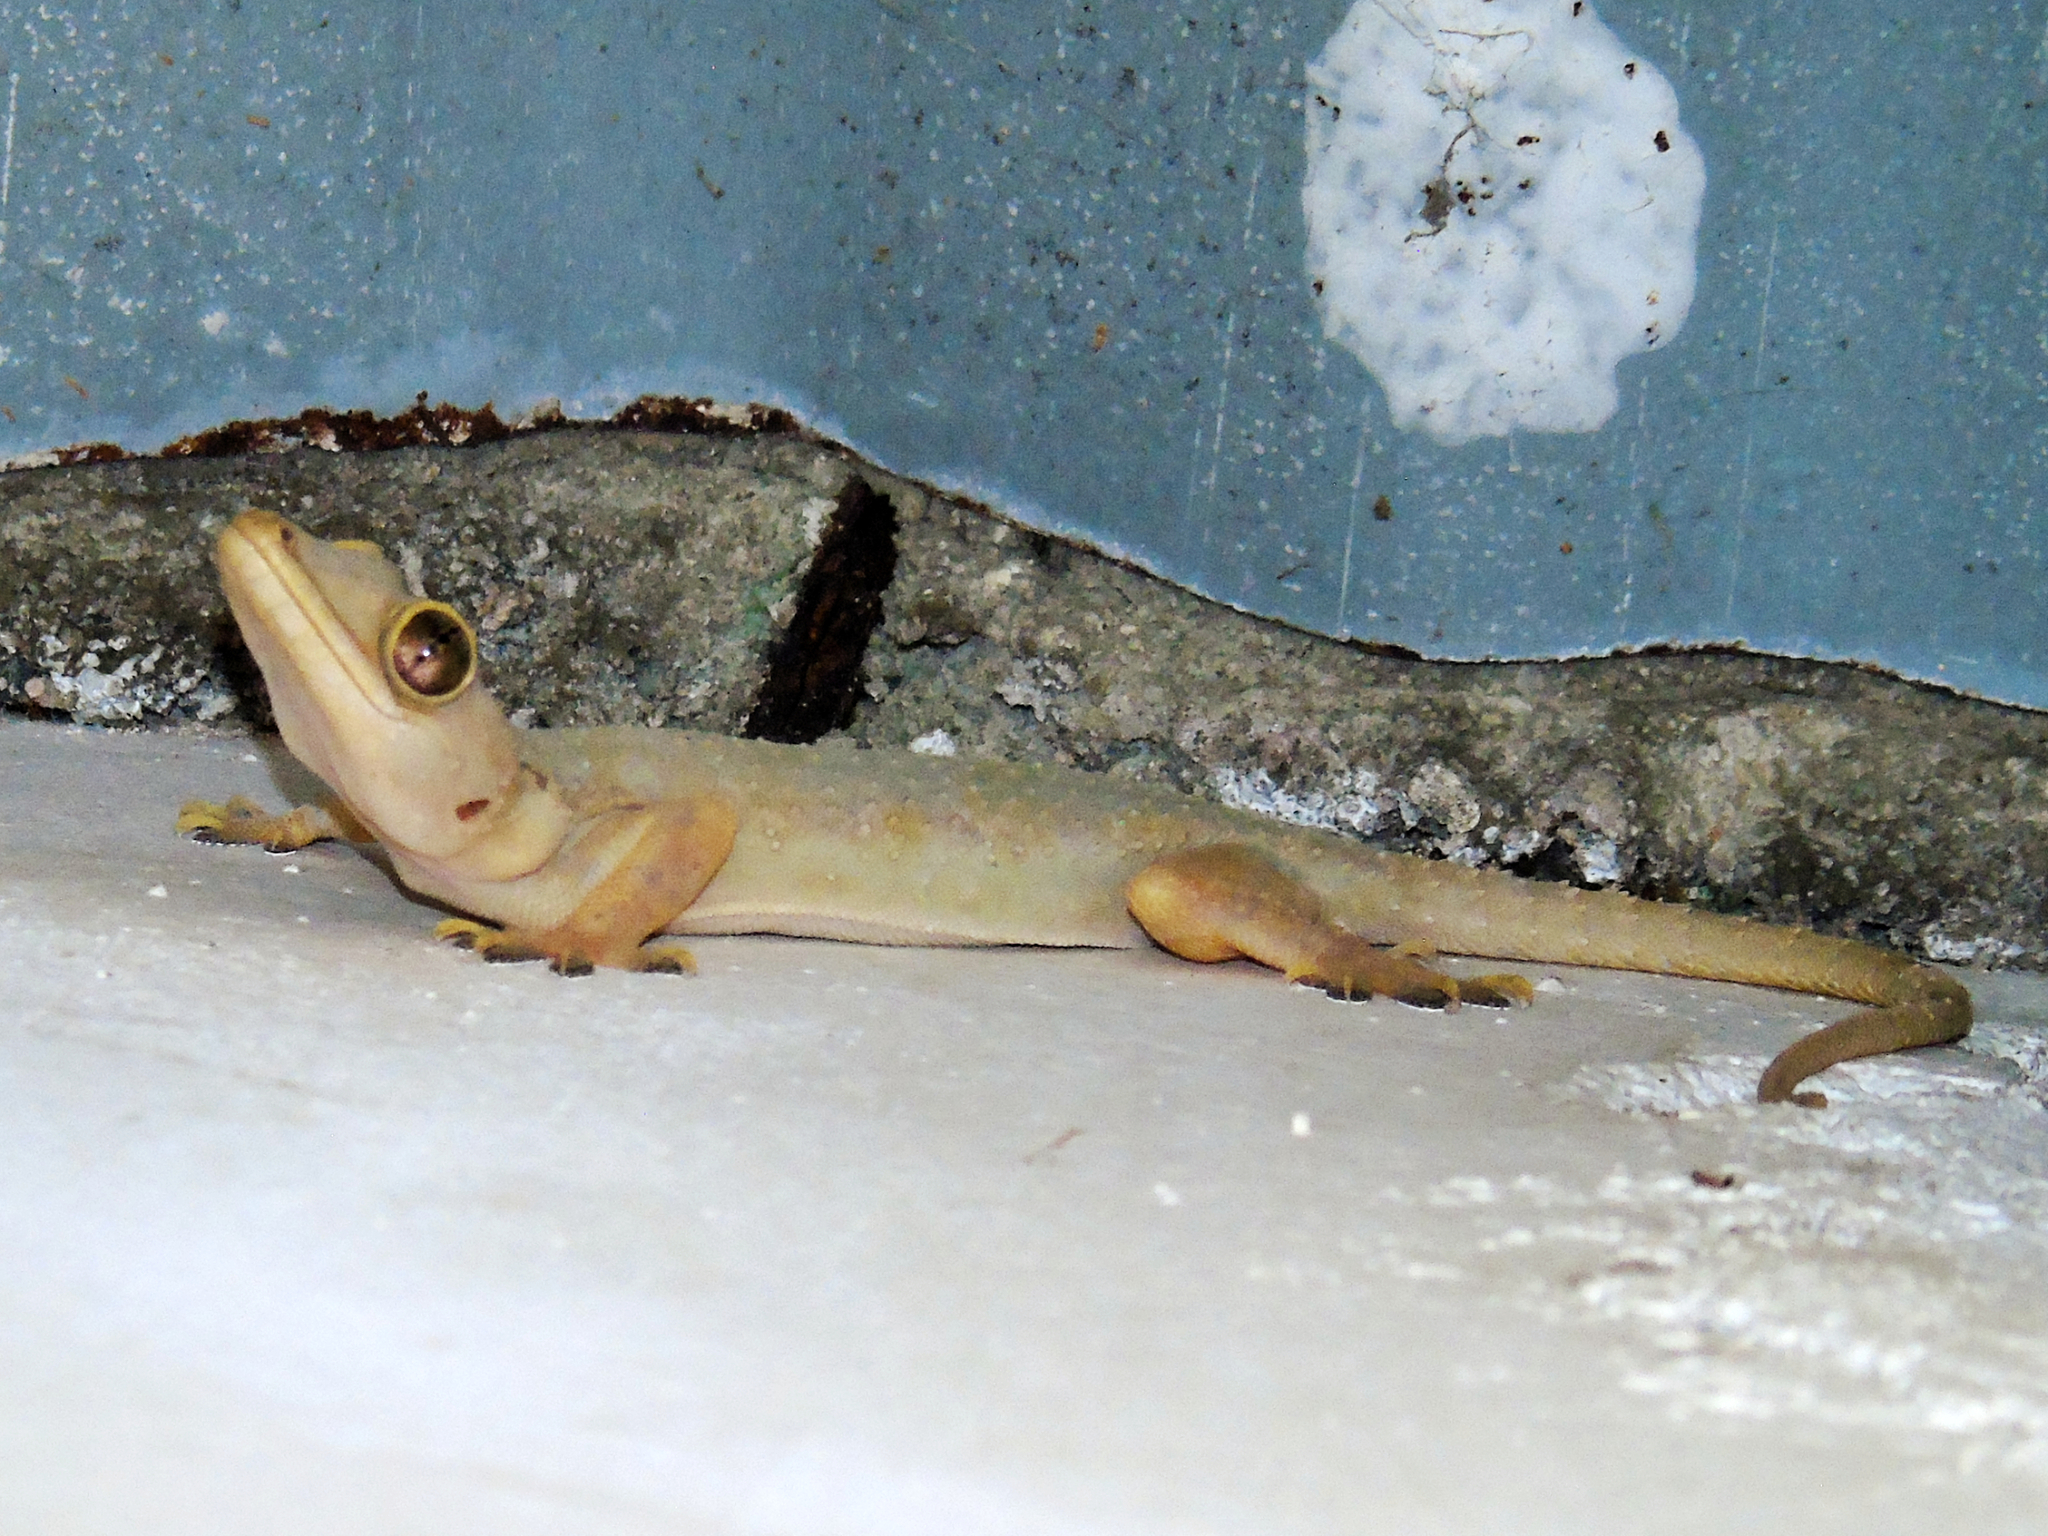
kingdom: Animalia
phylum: Chordata
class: Squamata
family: Gekkonidae
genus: Hemidactylus
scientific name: Hemidactylus mabouia
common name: House gecko
